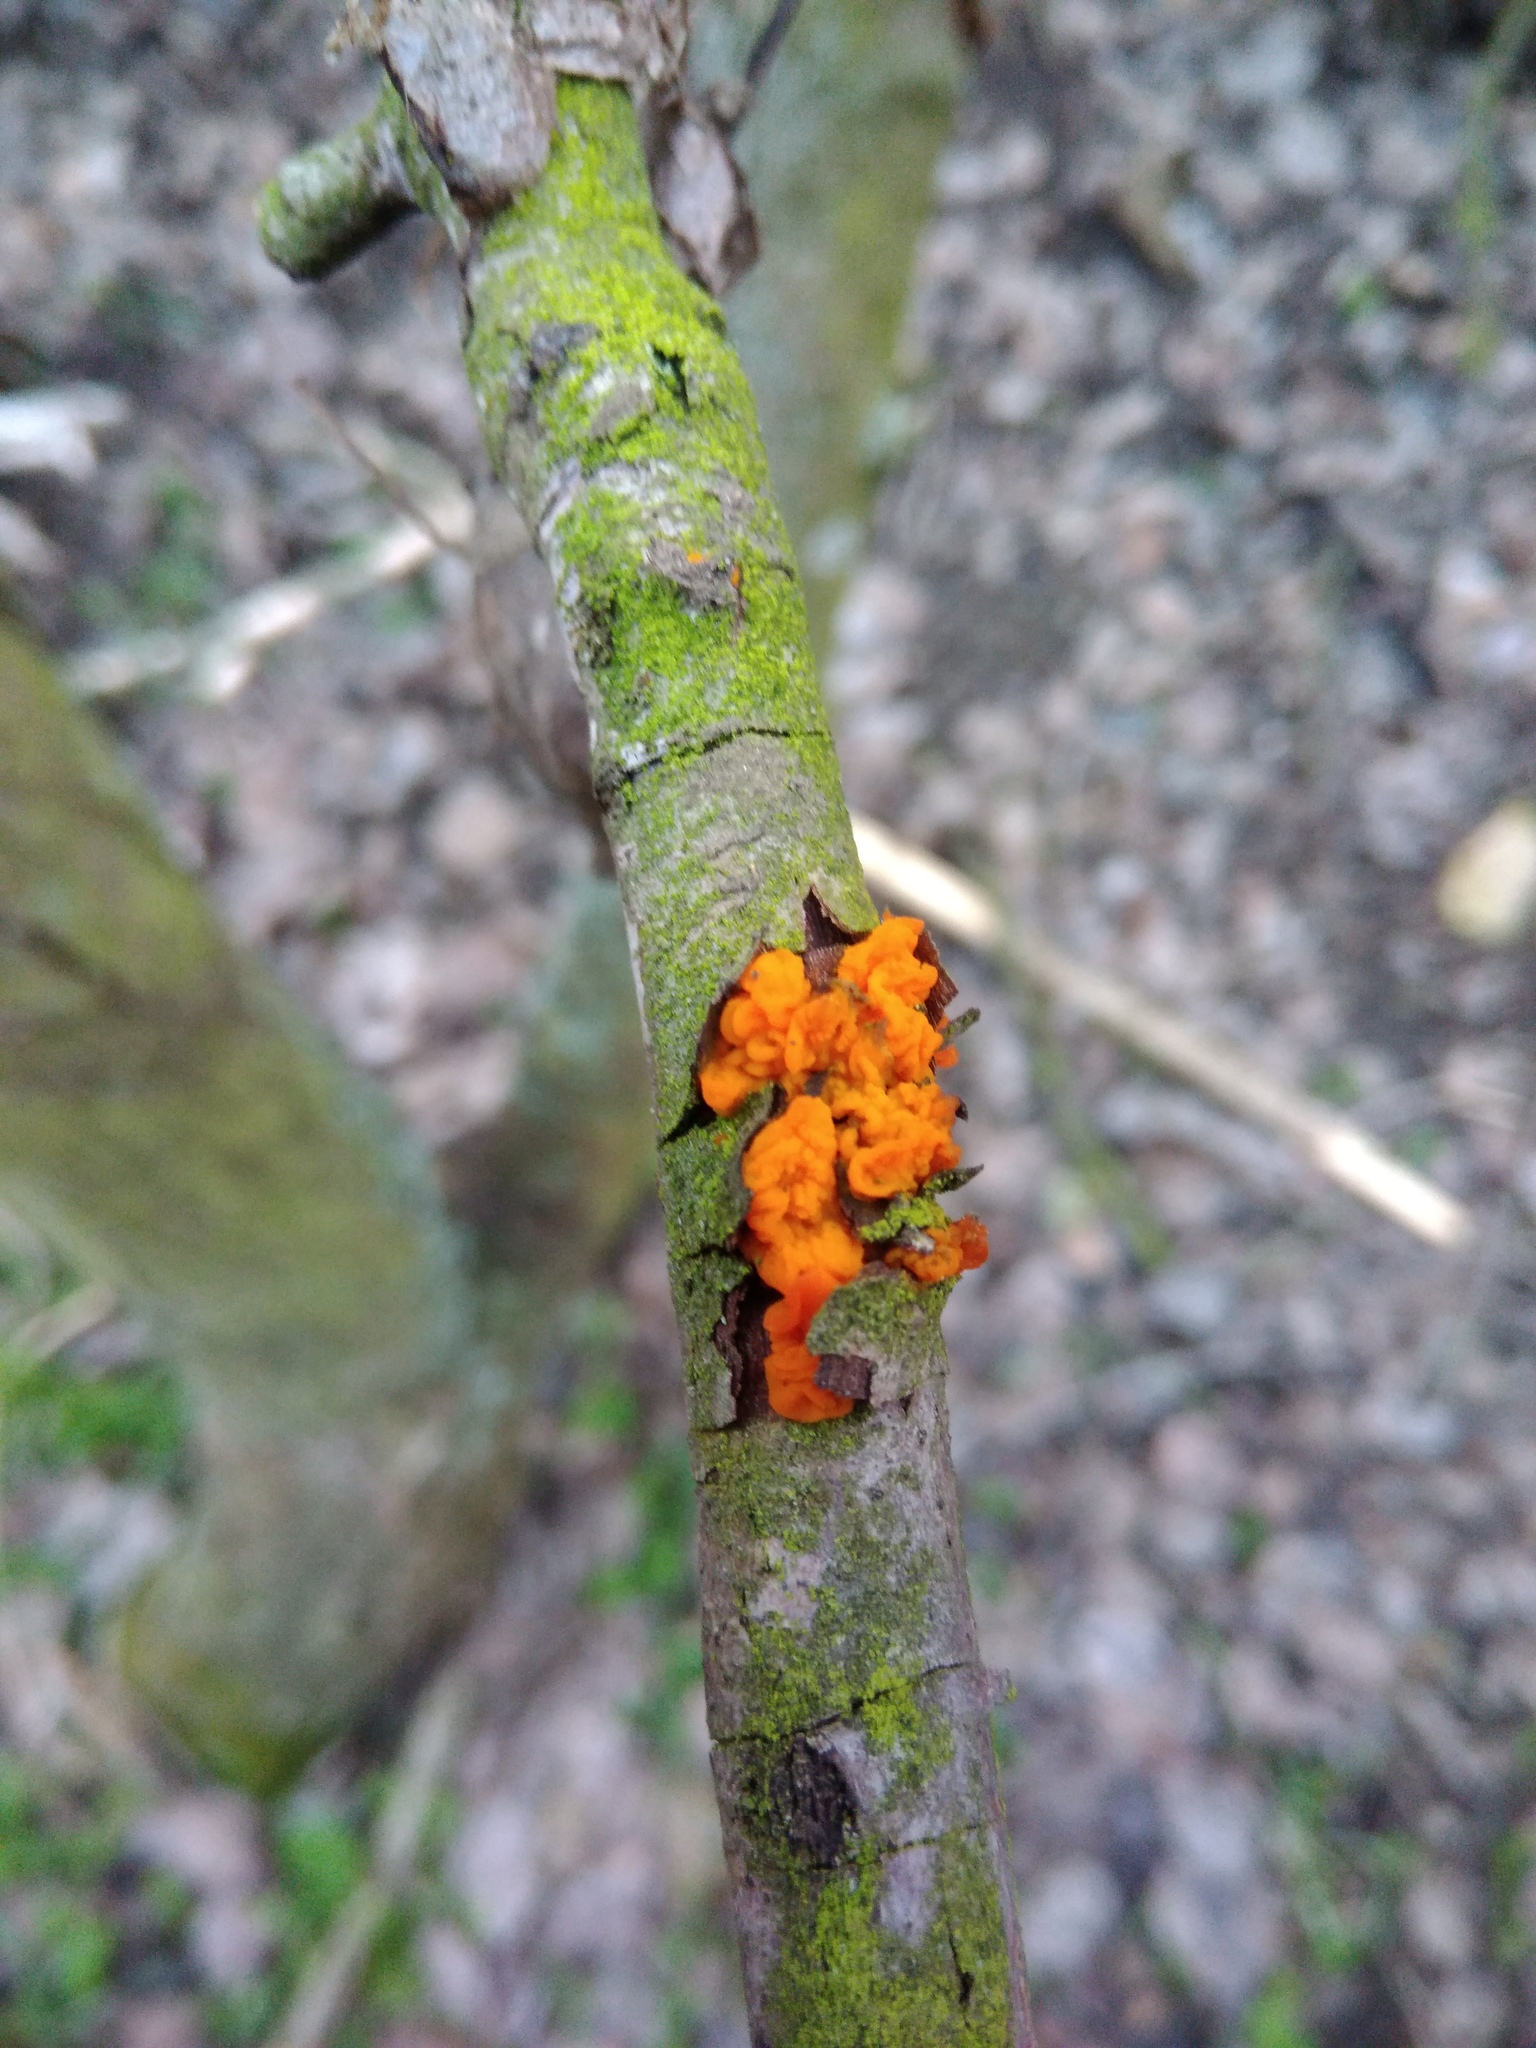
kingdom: Fungi
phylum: Basidiomycota
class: Tremellomycetes
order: Tremellales
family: Tremellaceae
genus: Tremella
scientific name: Tremella mesenterica
